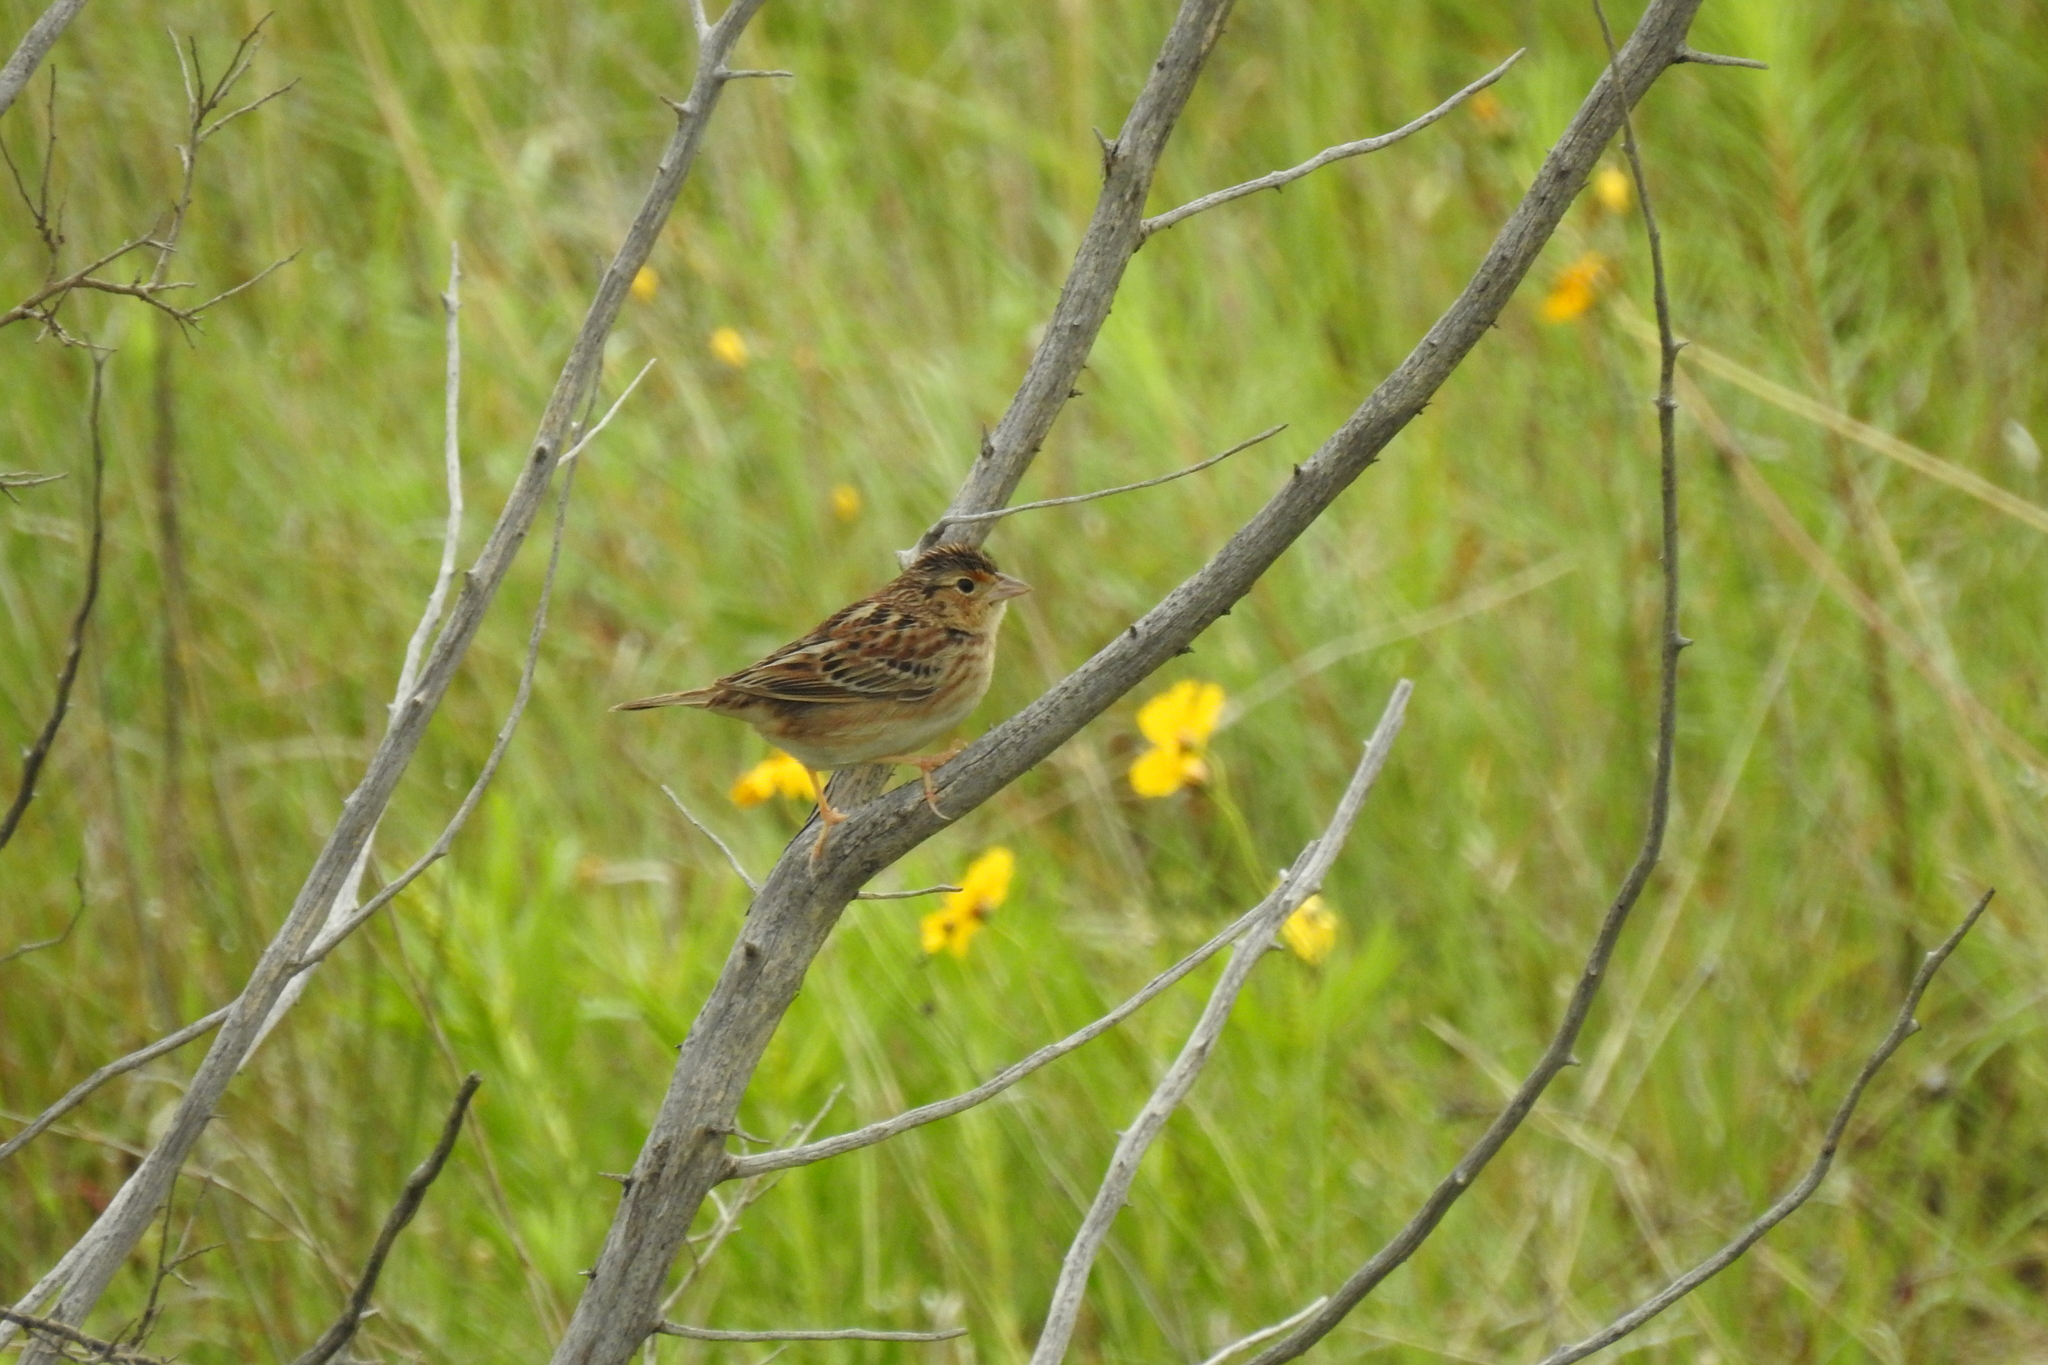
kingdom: Animalia
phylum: Chordata
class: Aves
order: Passeriformes
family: Passerellidae
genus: Ammodramus
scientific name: Ammodramus savannarum
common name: Grasshopper sparrow
